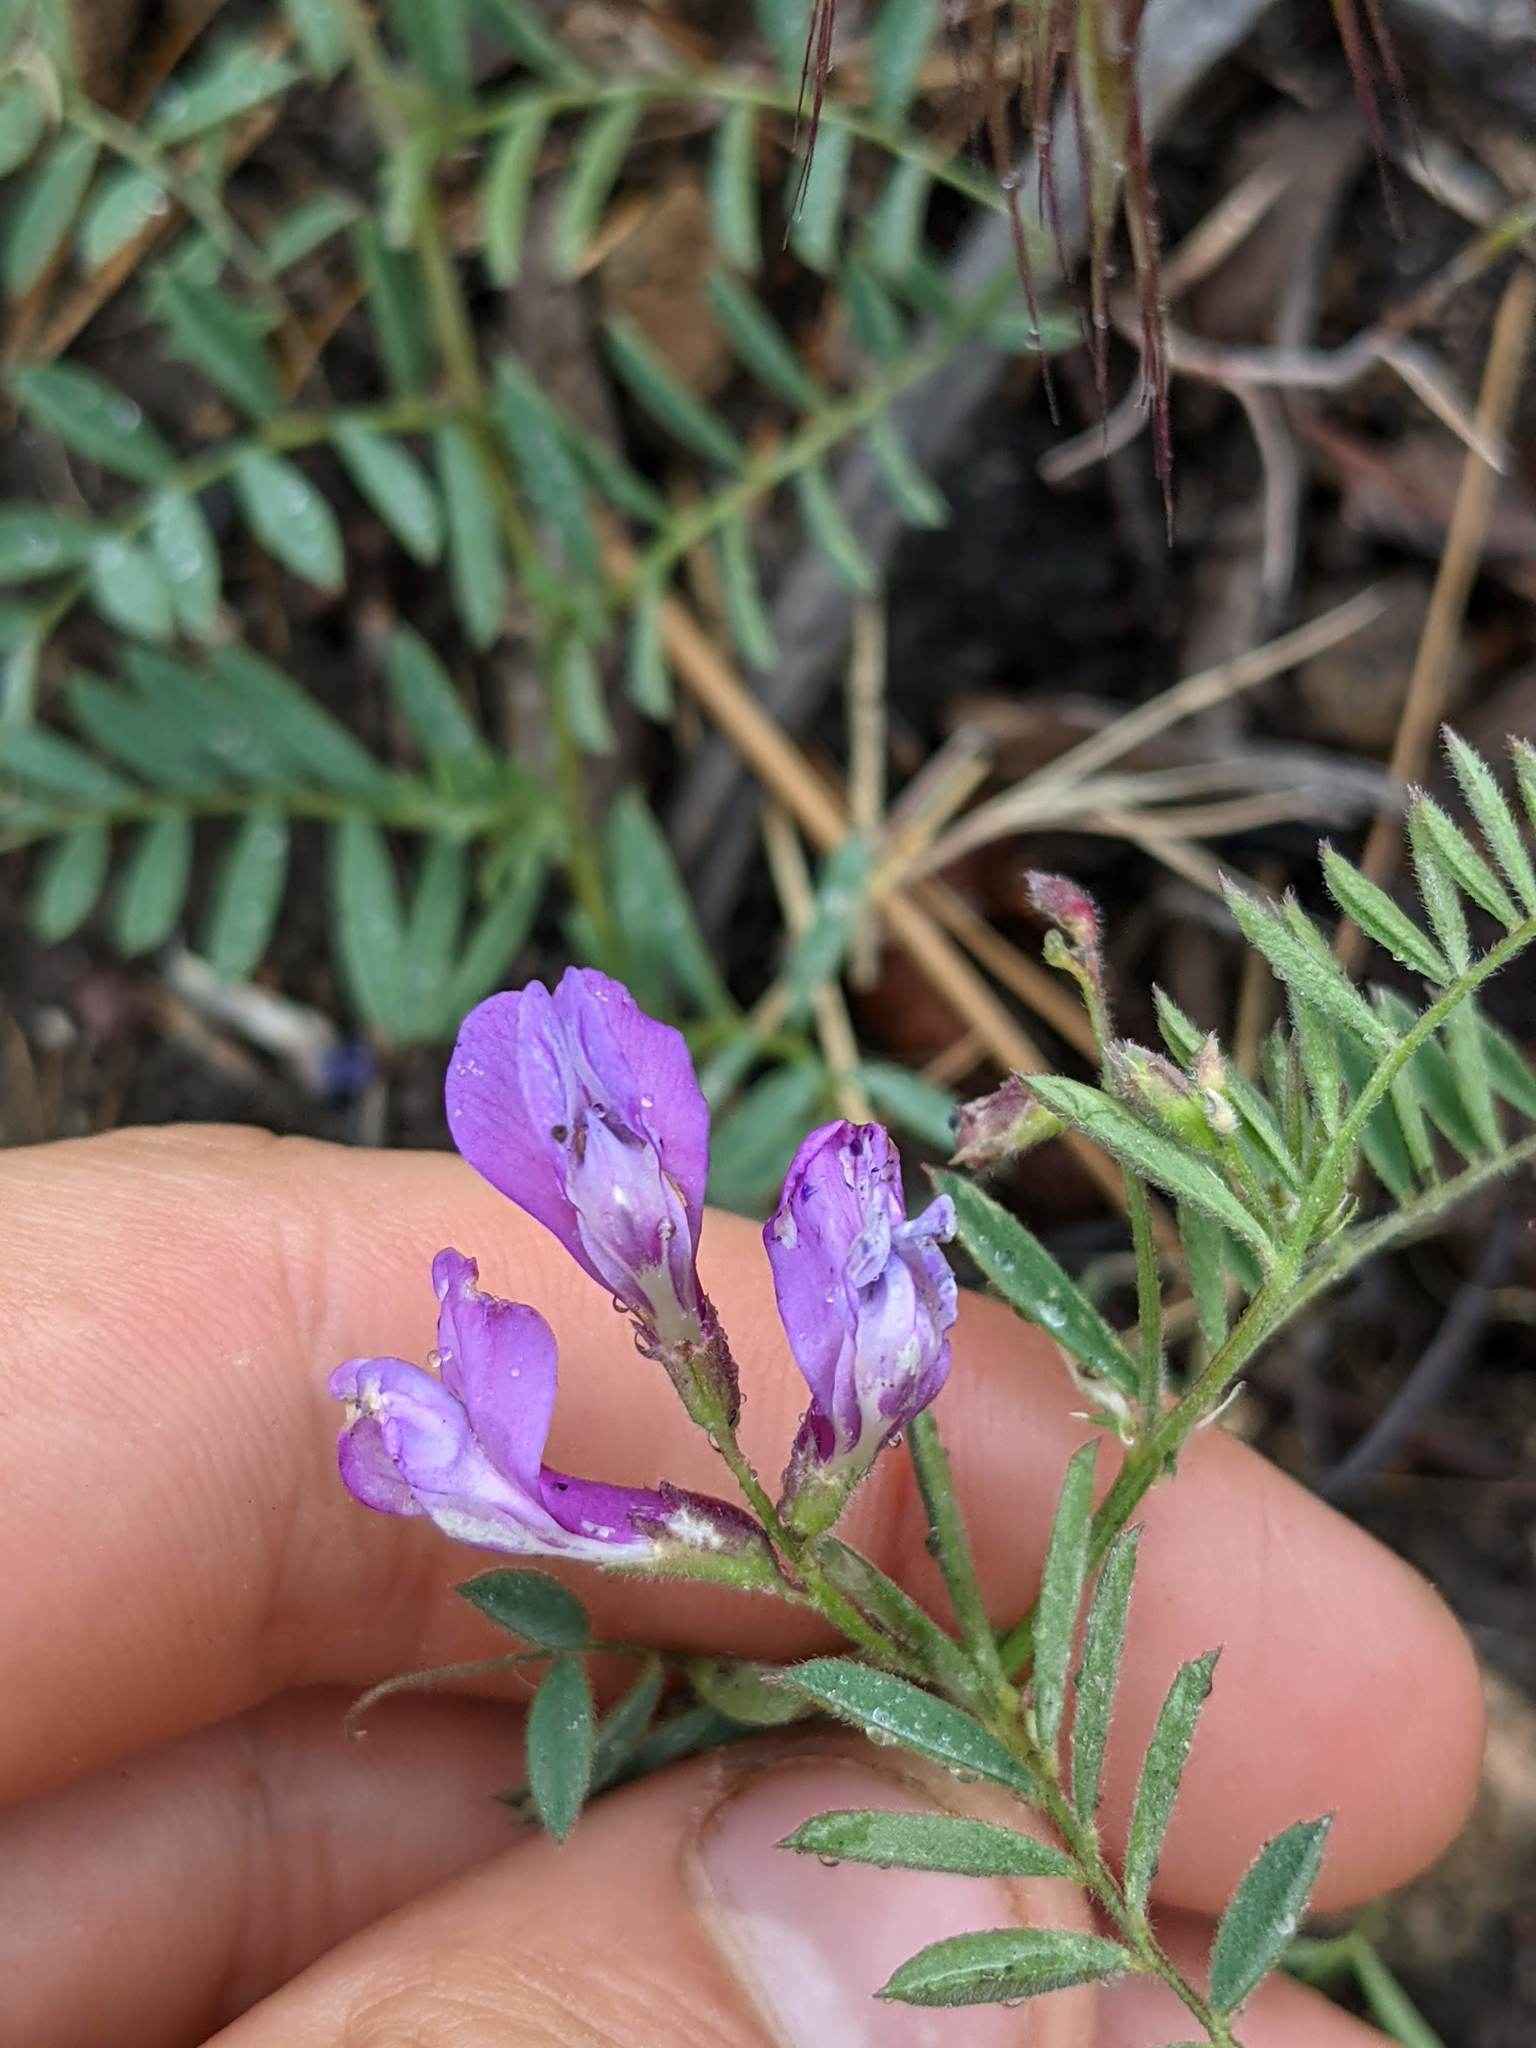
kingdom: Plantae
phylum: Tracheophyta
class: Magnoliopsida
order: Fabales
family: Fabaceae
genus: Vicia
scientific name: Vicia americana
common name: American vetch
